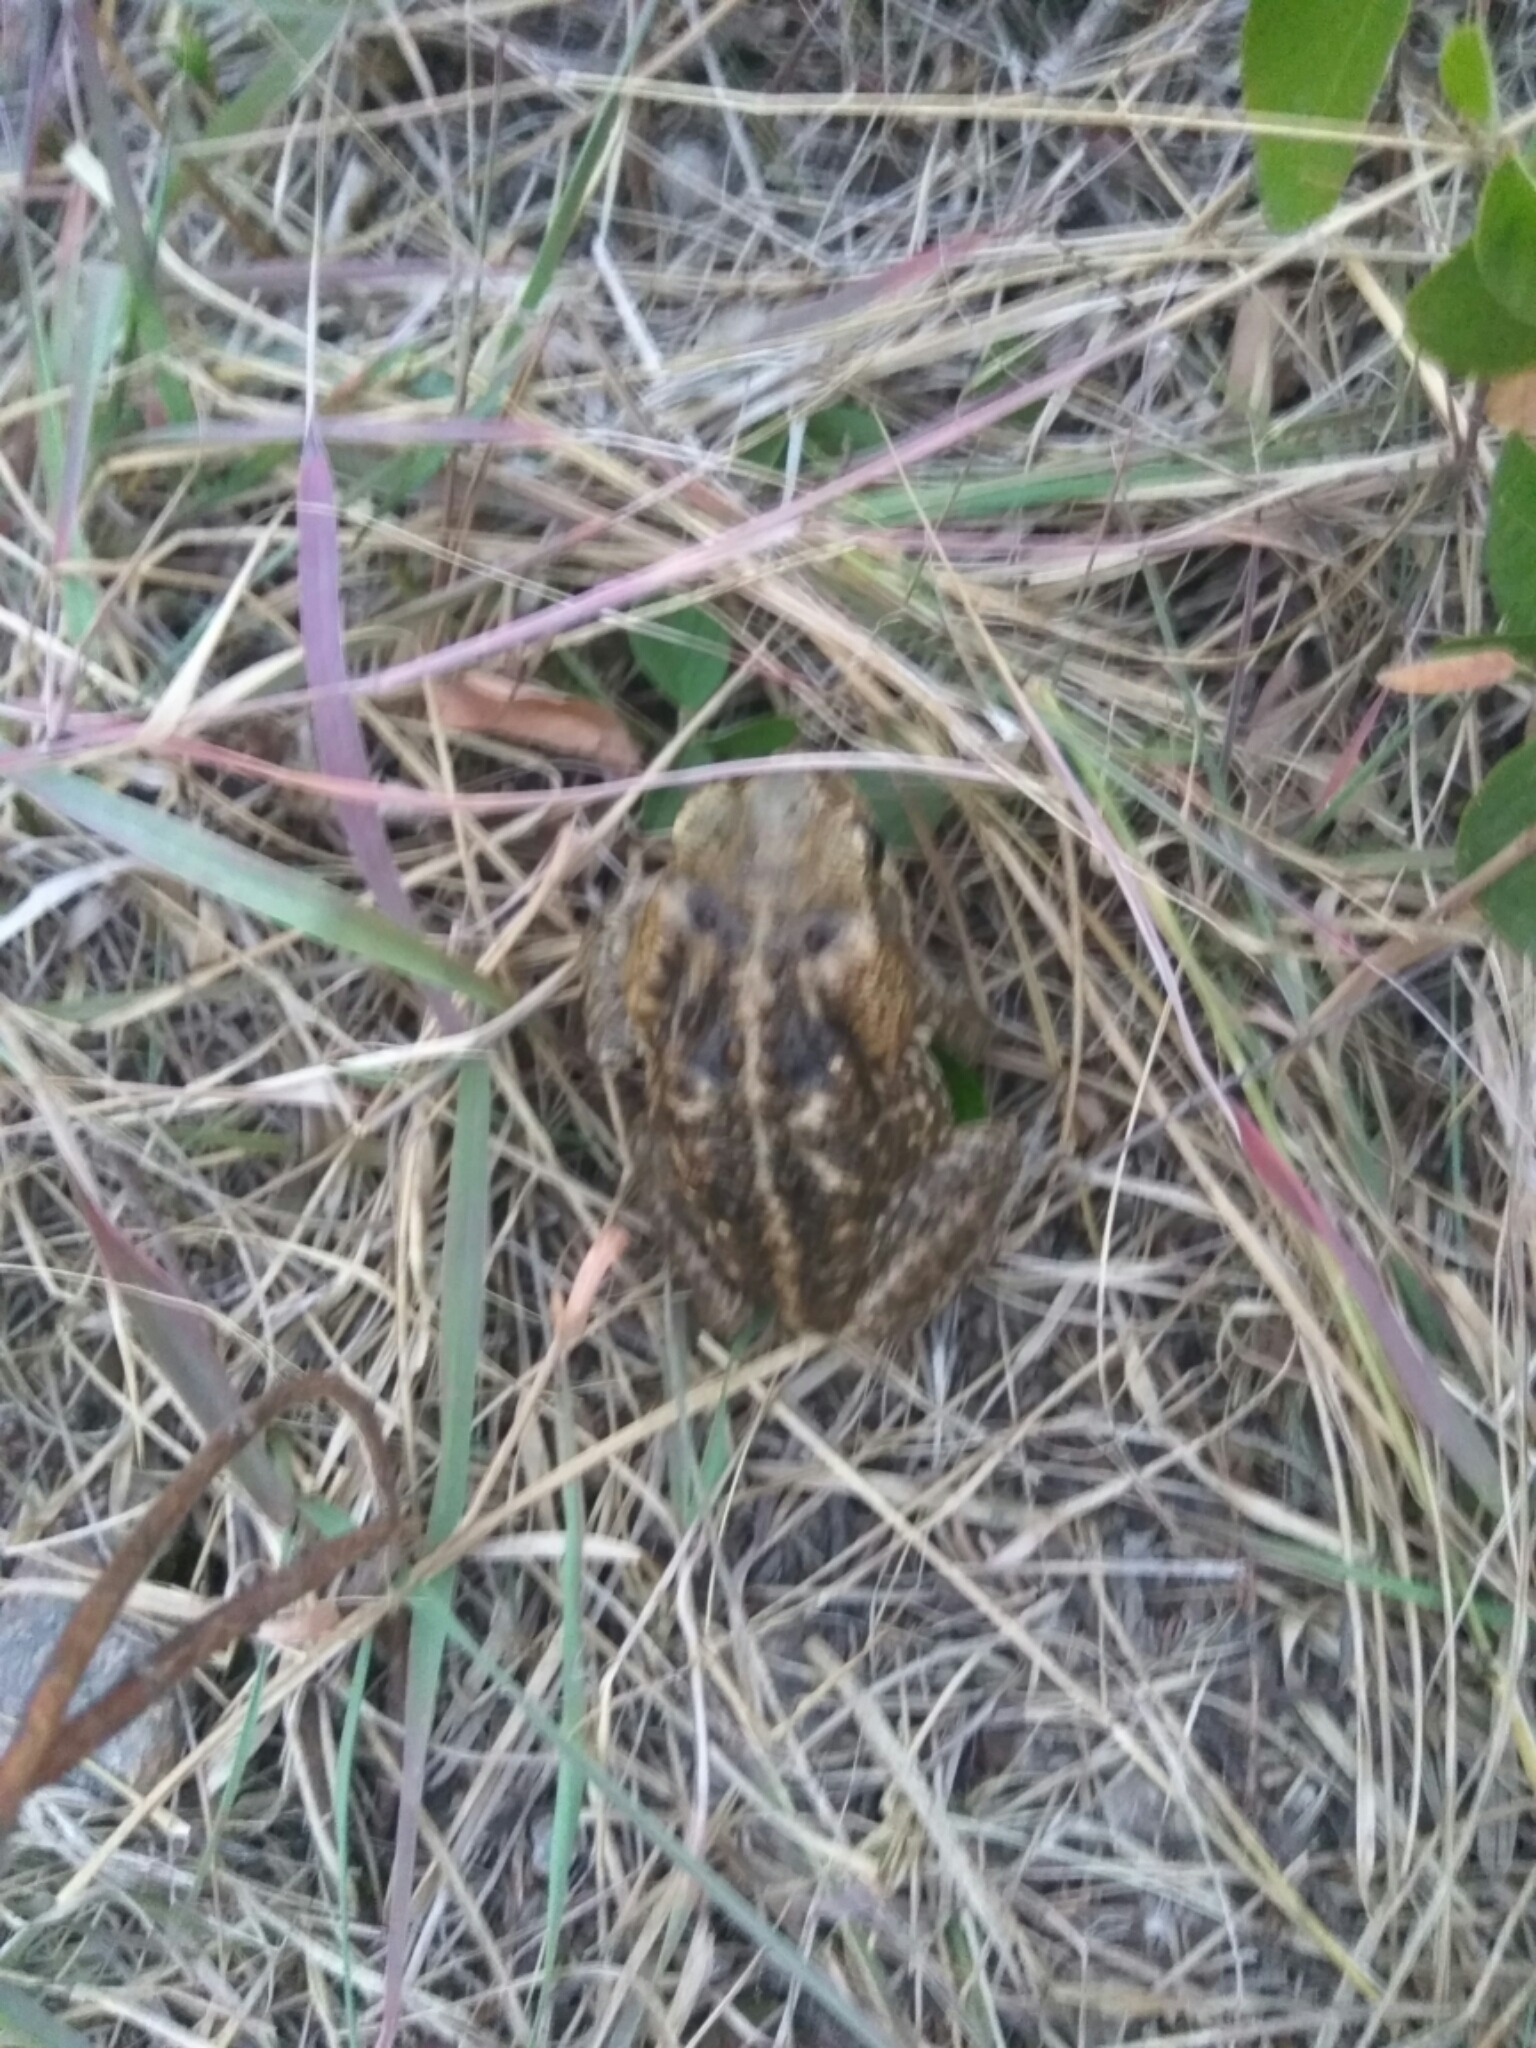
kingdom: Animalia
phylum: Chordata
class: Amphibia
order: Anura
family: Bufonidae
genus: Rhinella
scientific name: Rhinella horribilis
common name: Mesoamerican cane toad
